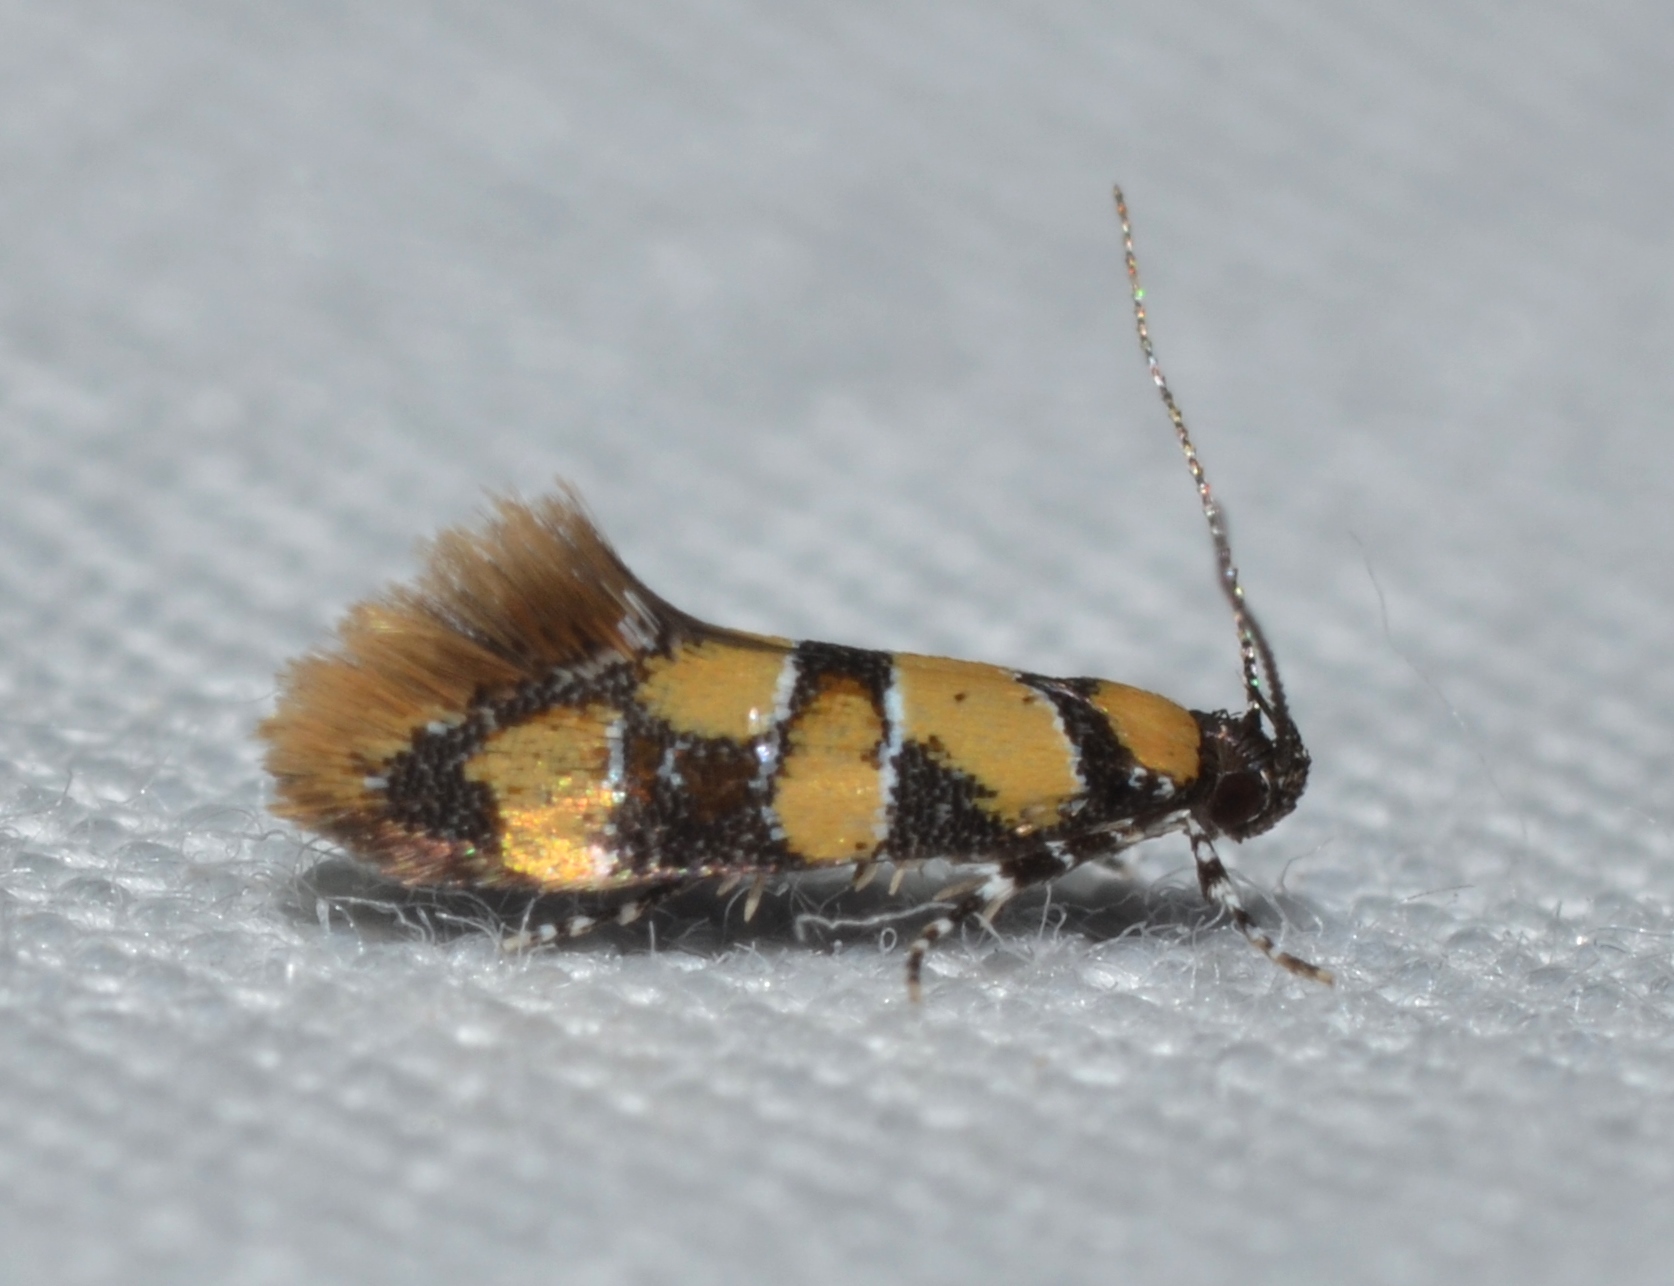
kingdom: Animalia
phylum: Arthropoda
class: Insecta
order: Lepidoptera
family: Oecophoridae
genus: Decantha
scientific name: Decantha borkhausenii
